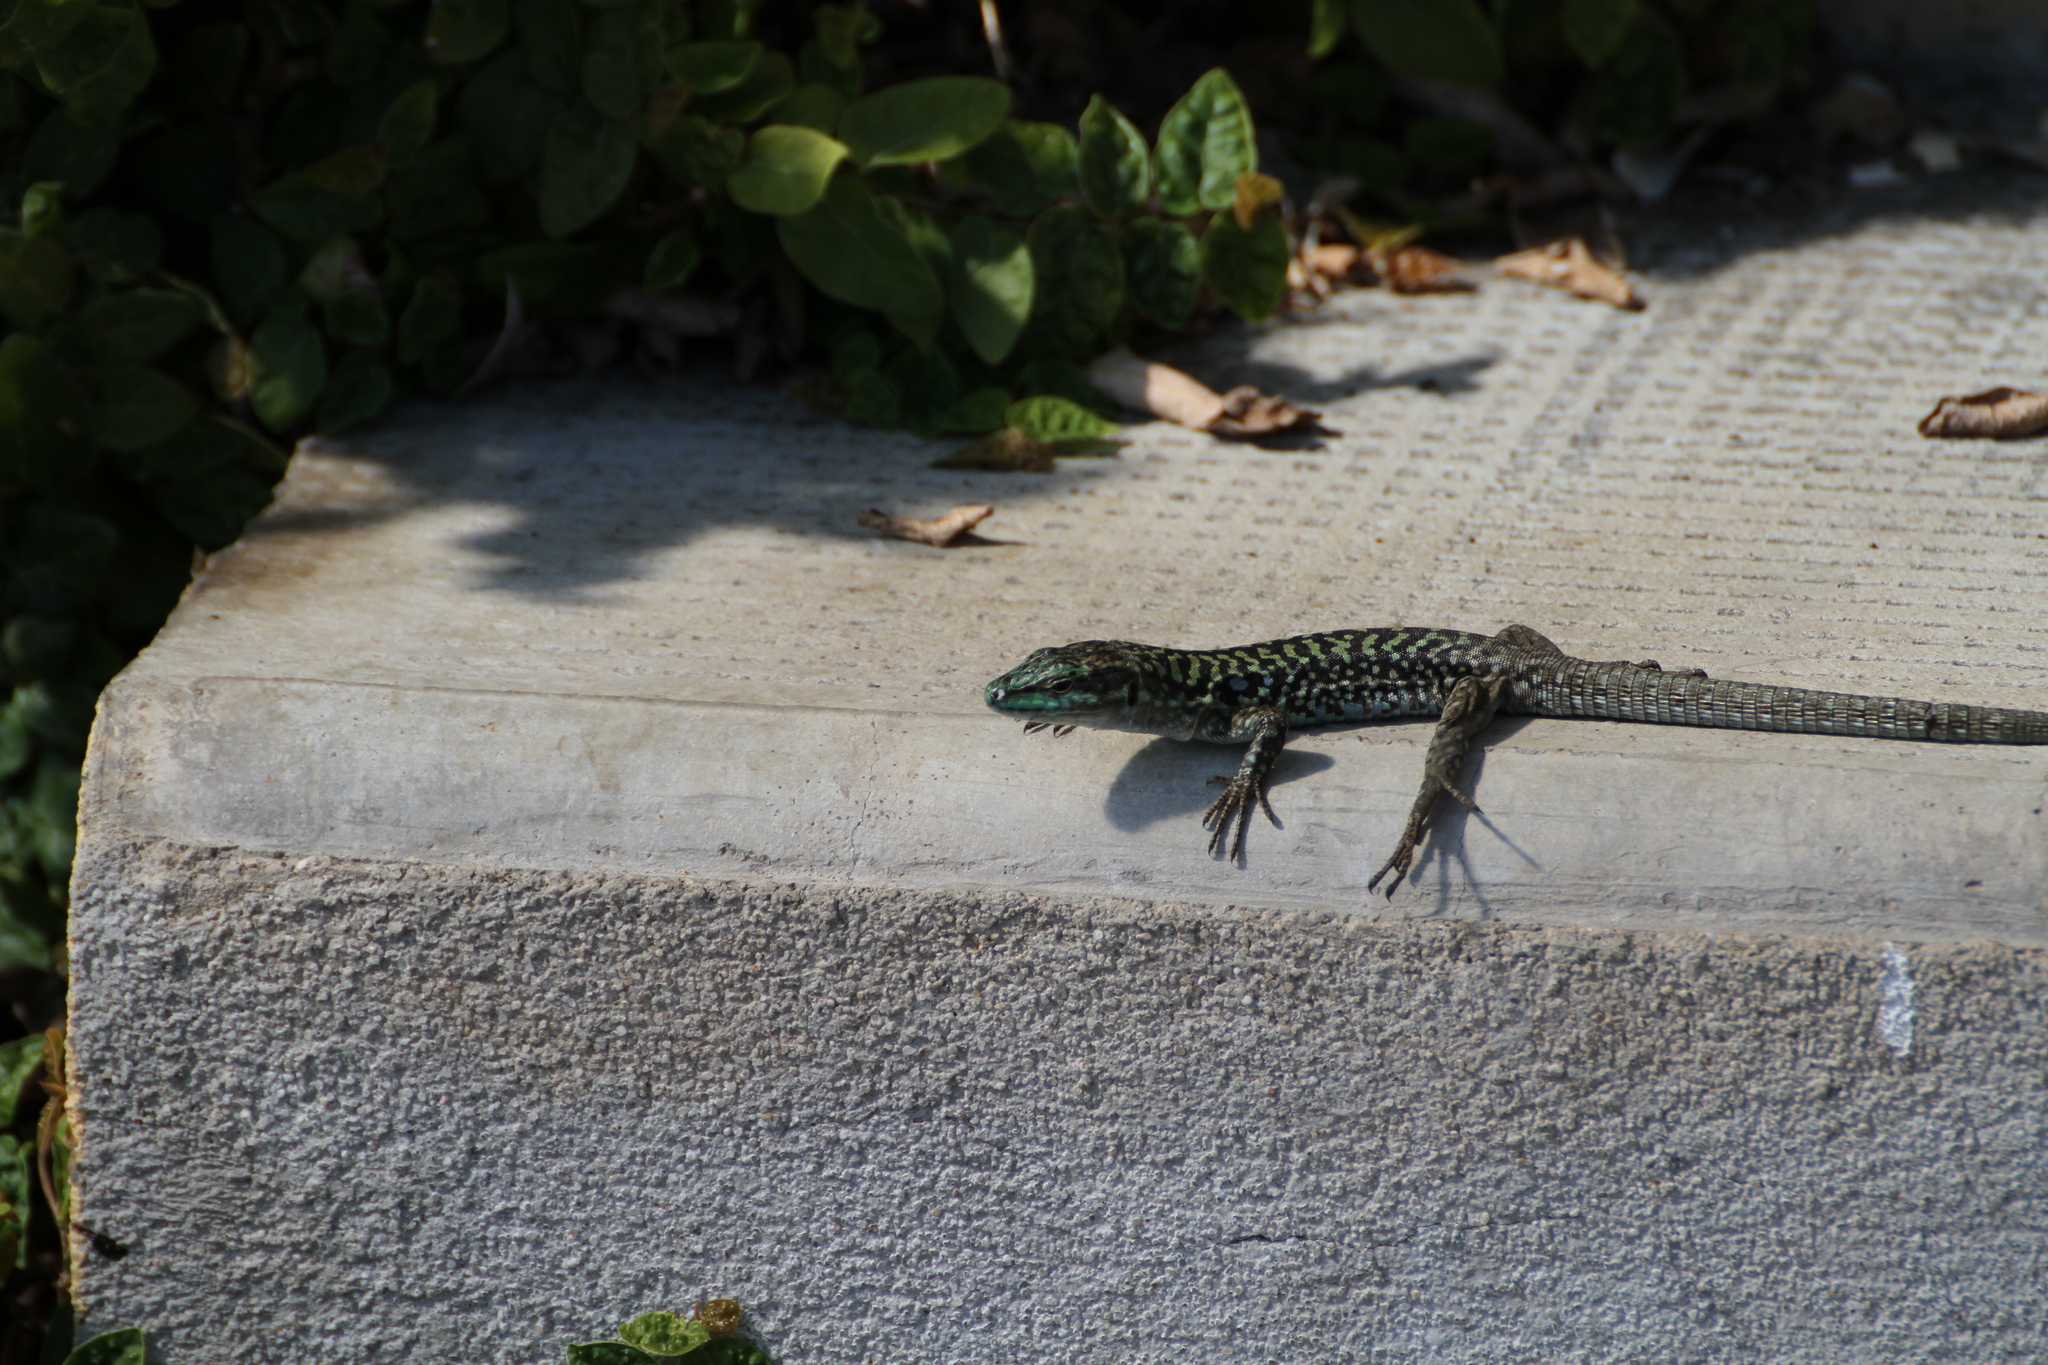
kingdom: Animalia
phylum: Chordata
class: Squamata
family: Lacertidae
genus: Podarcis
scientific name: Podarcis siculus
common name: Italian wall lizard
